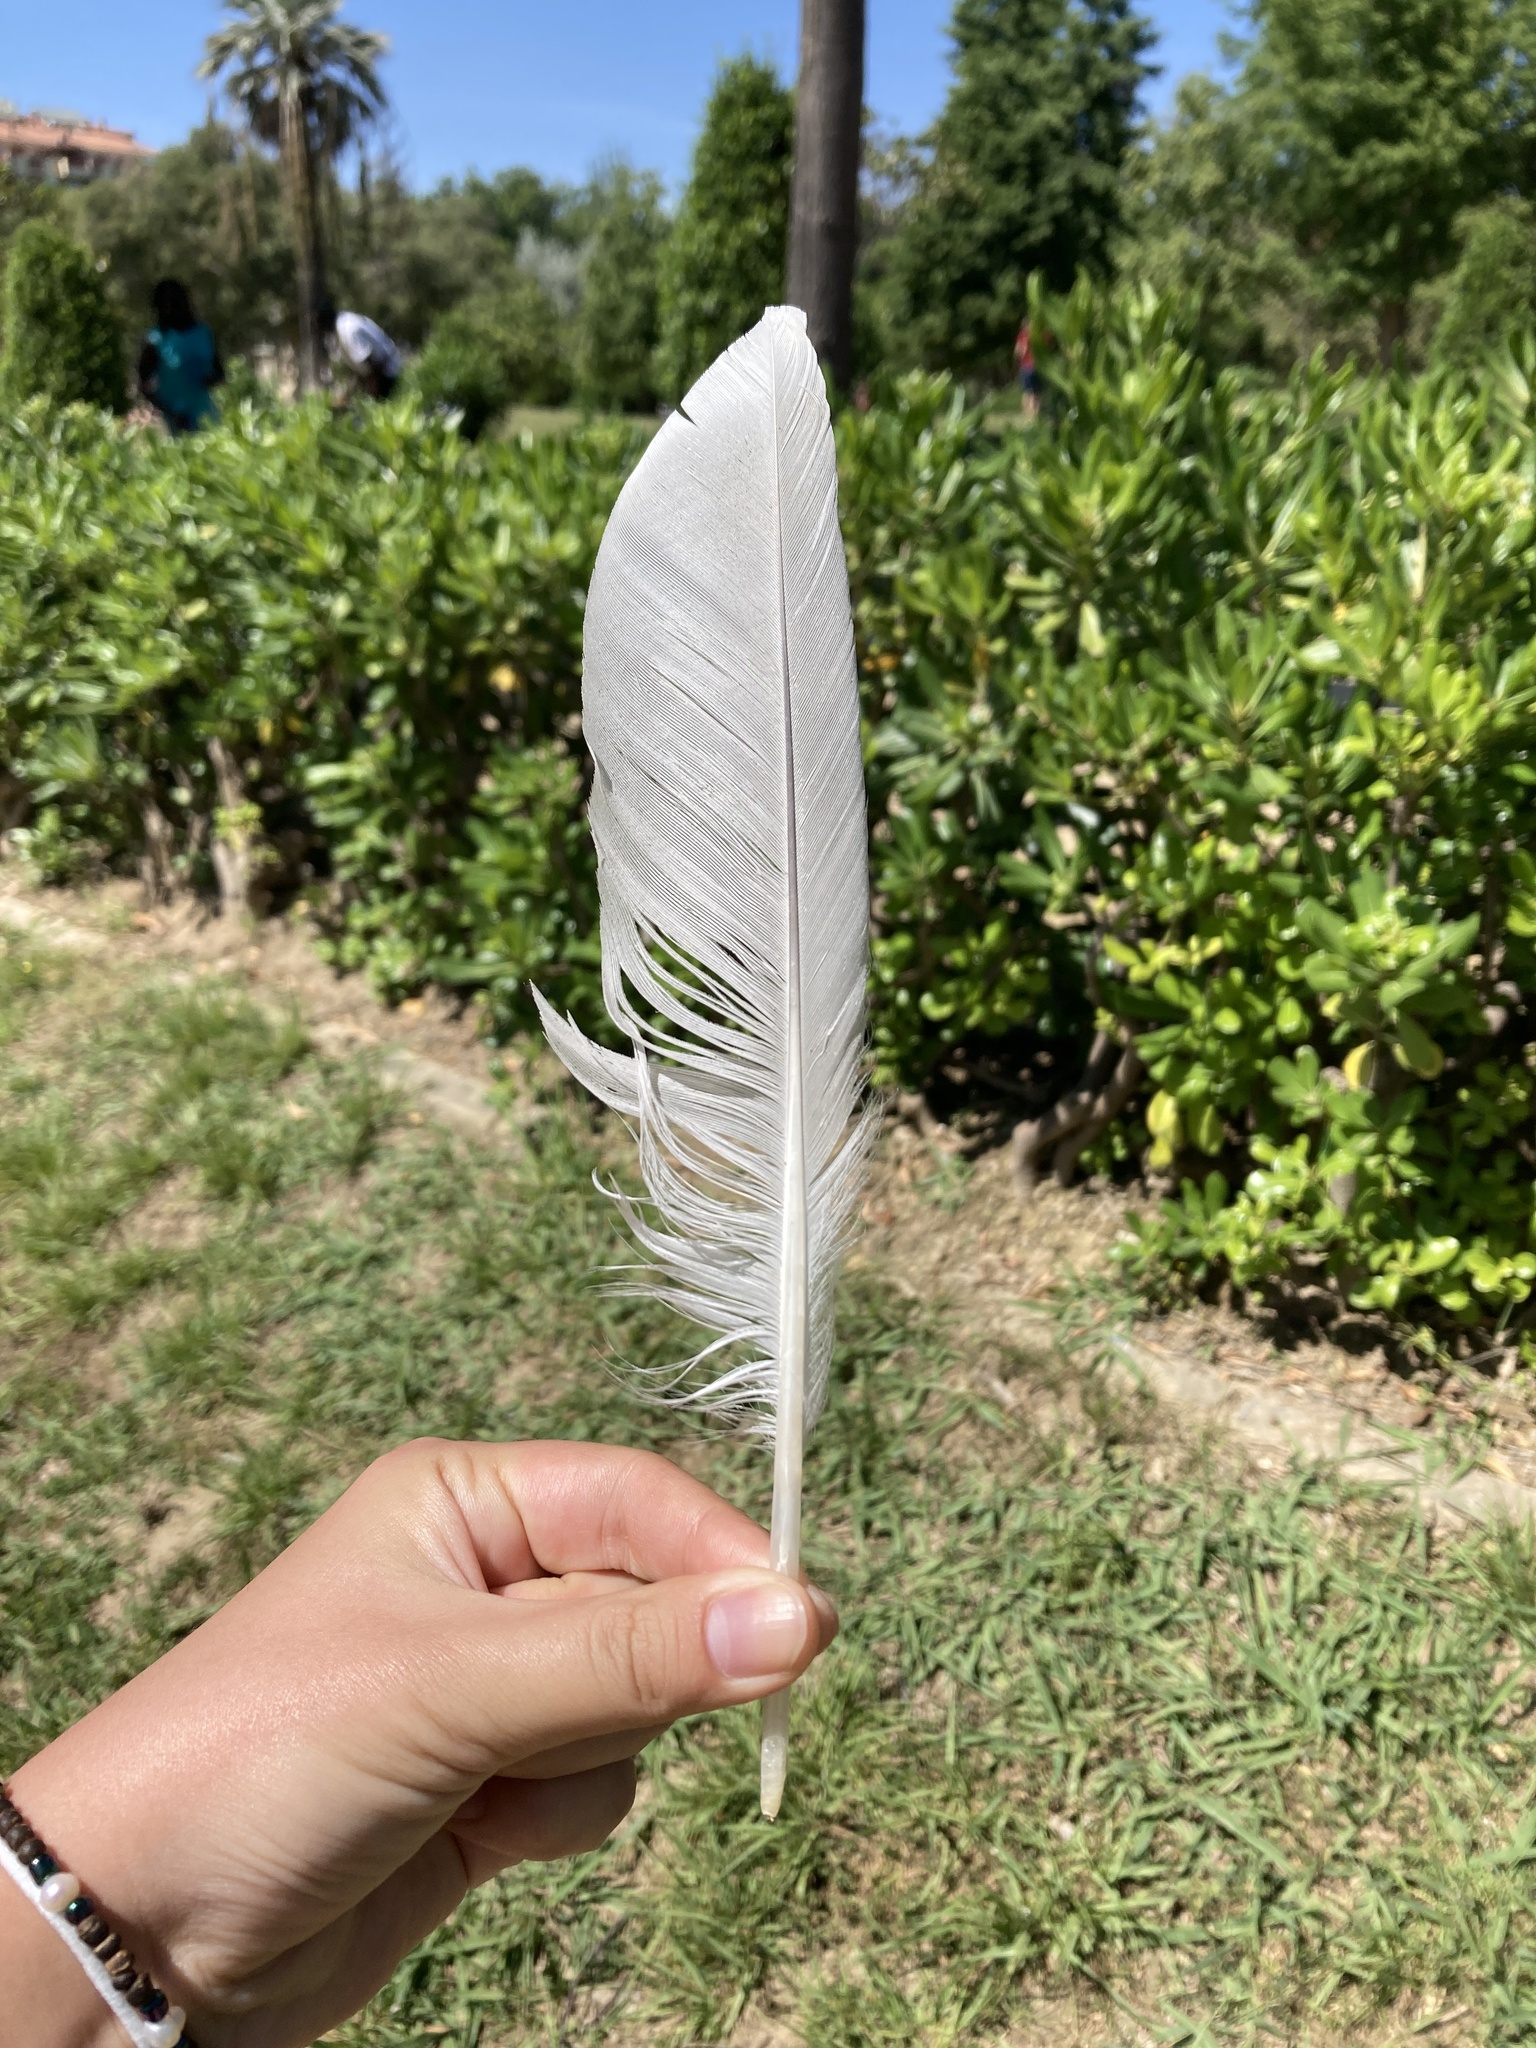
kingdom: Animalia
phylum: Chordata
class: Aves
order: Charadriiformes
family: Laridae
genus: Larus
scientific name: Larus michahellis
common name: Yellow-legged gull
